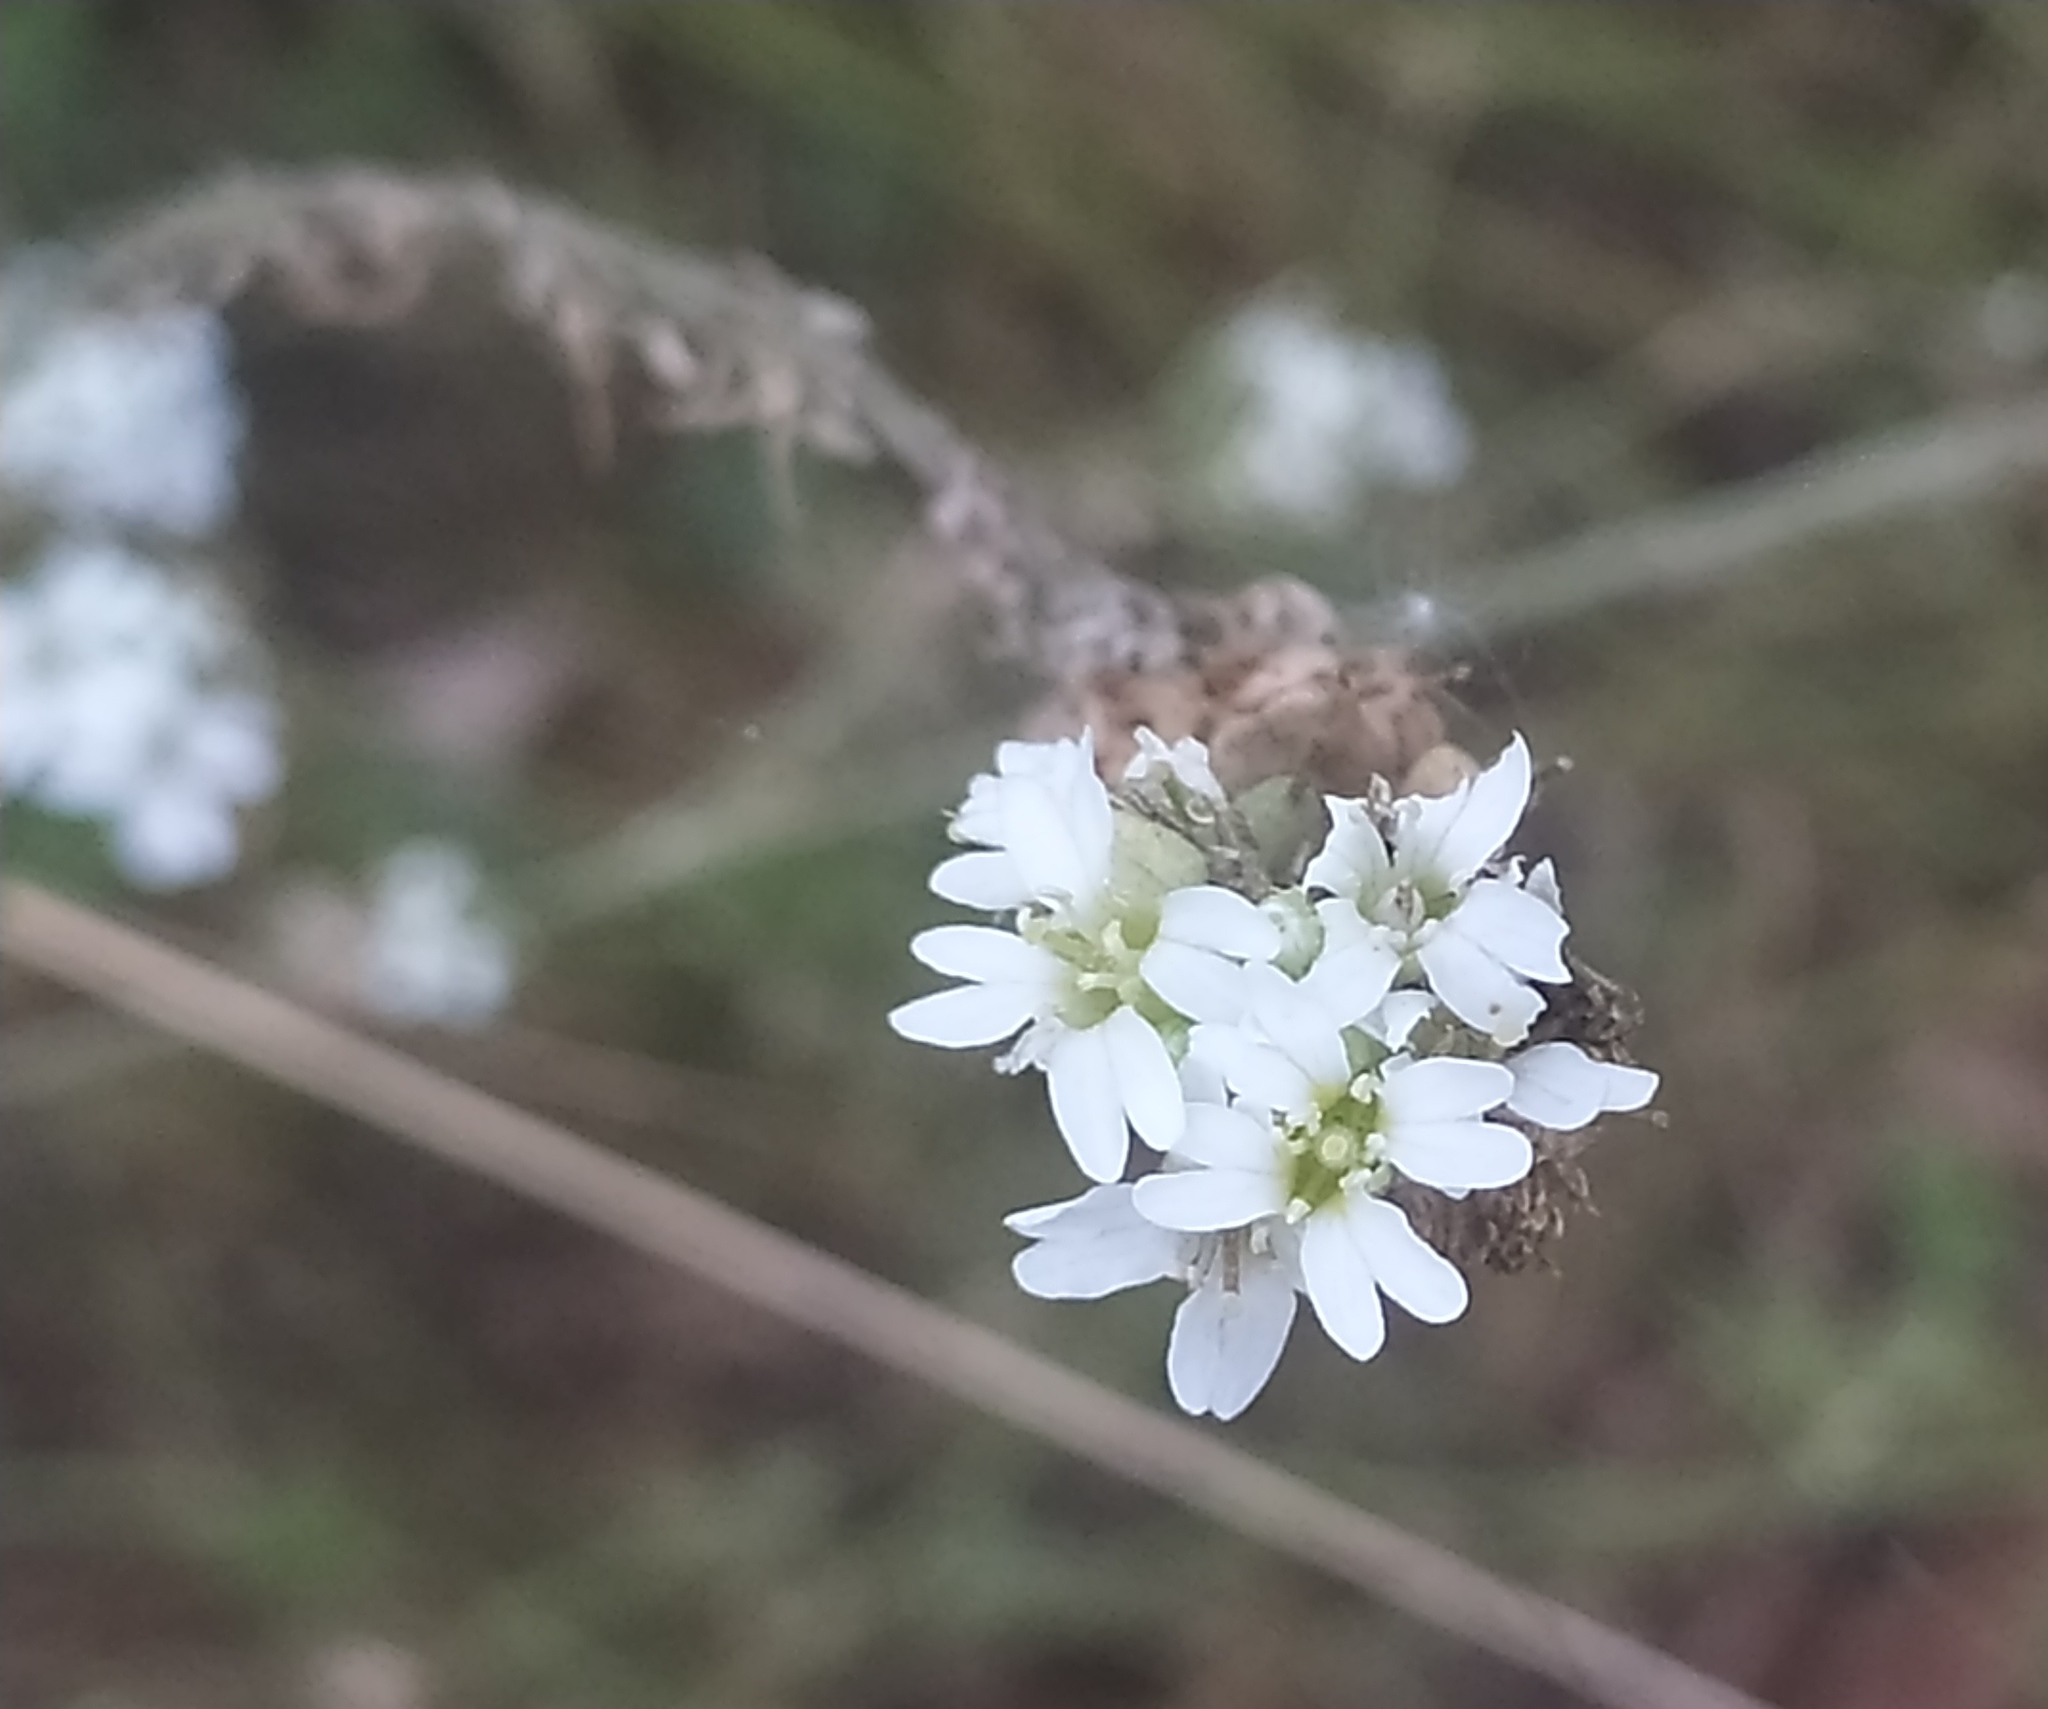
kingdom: Plantae
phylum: Tracheophyta
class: Magnoliopsida
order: Brassicales
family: Brassicaceae
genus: Berteroa
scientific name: Berteroa incana
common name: Hoary alison
